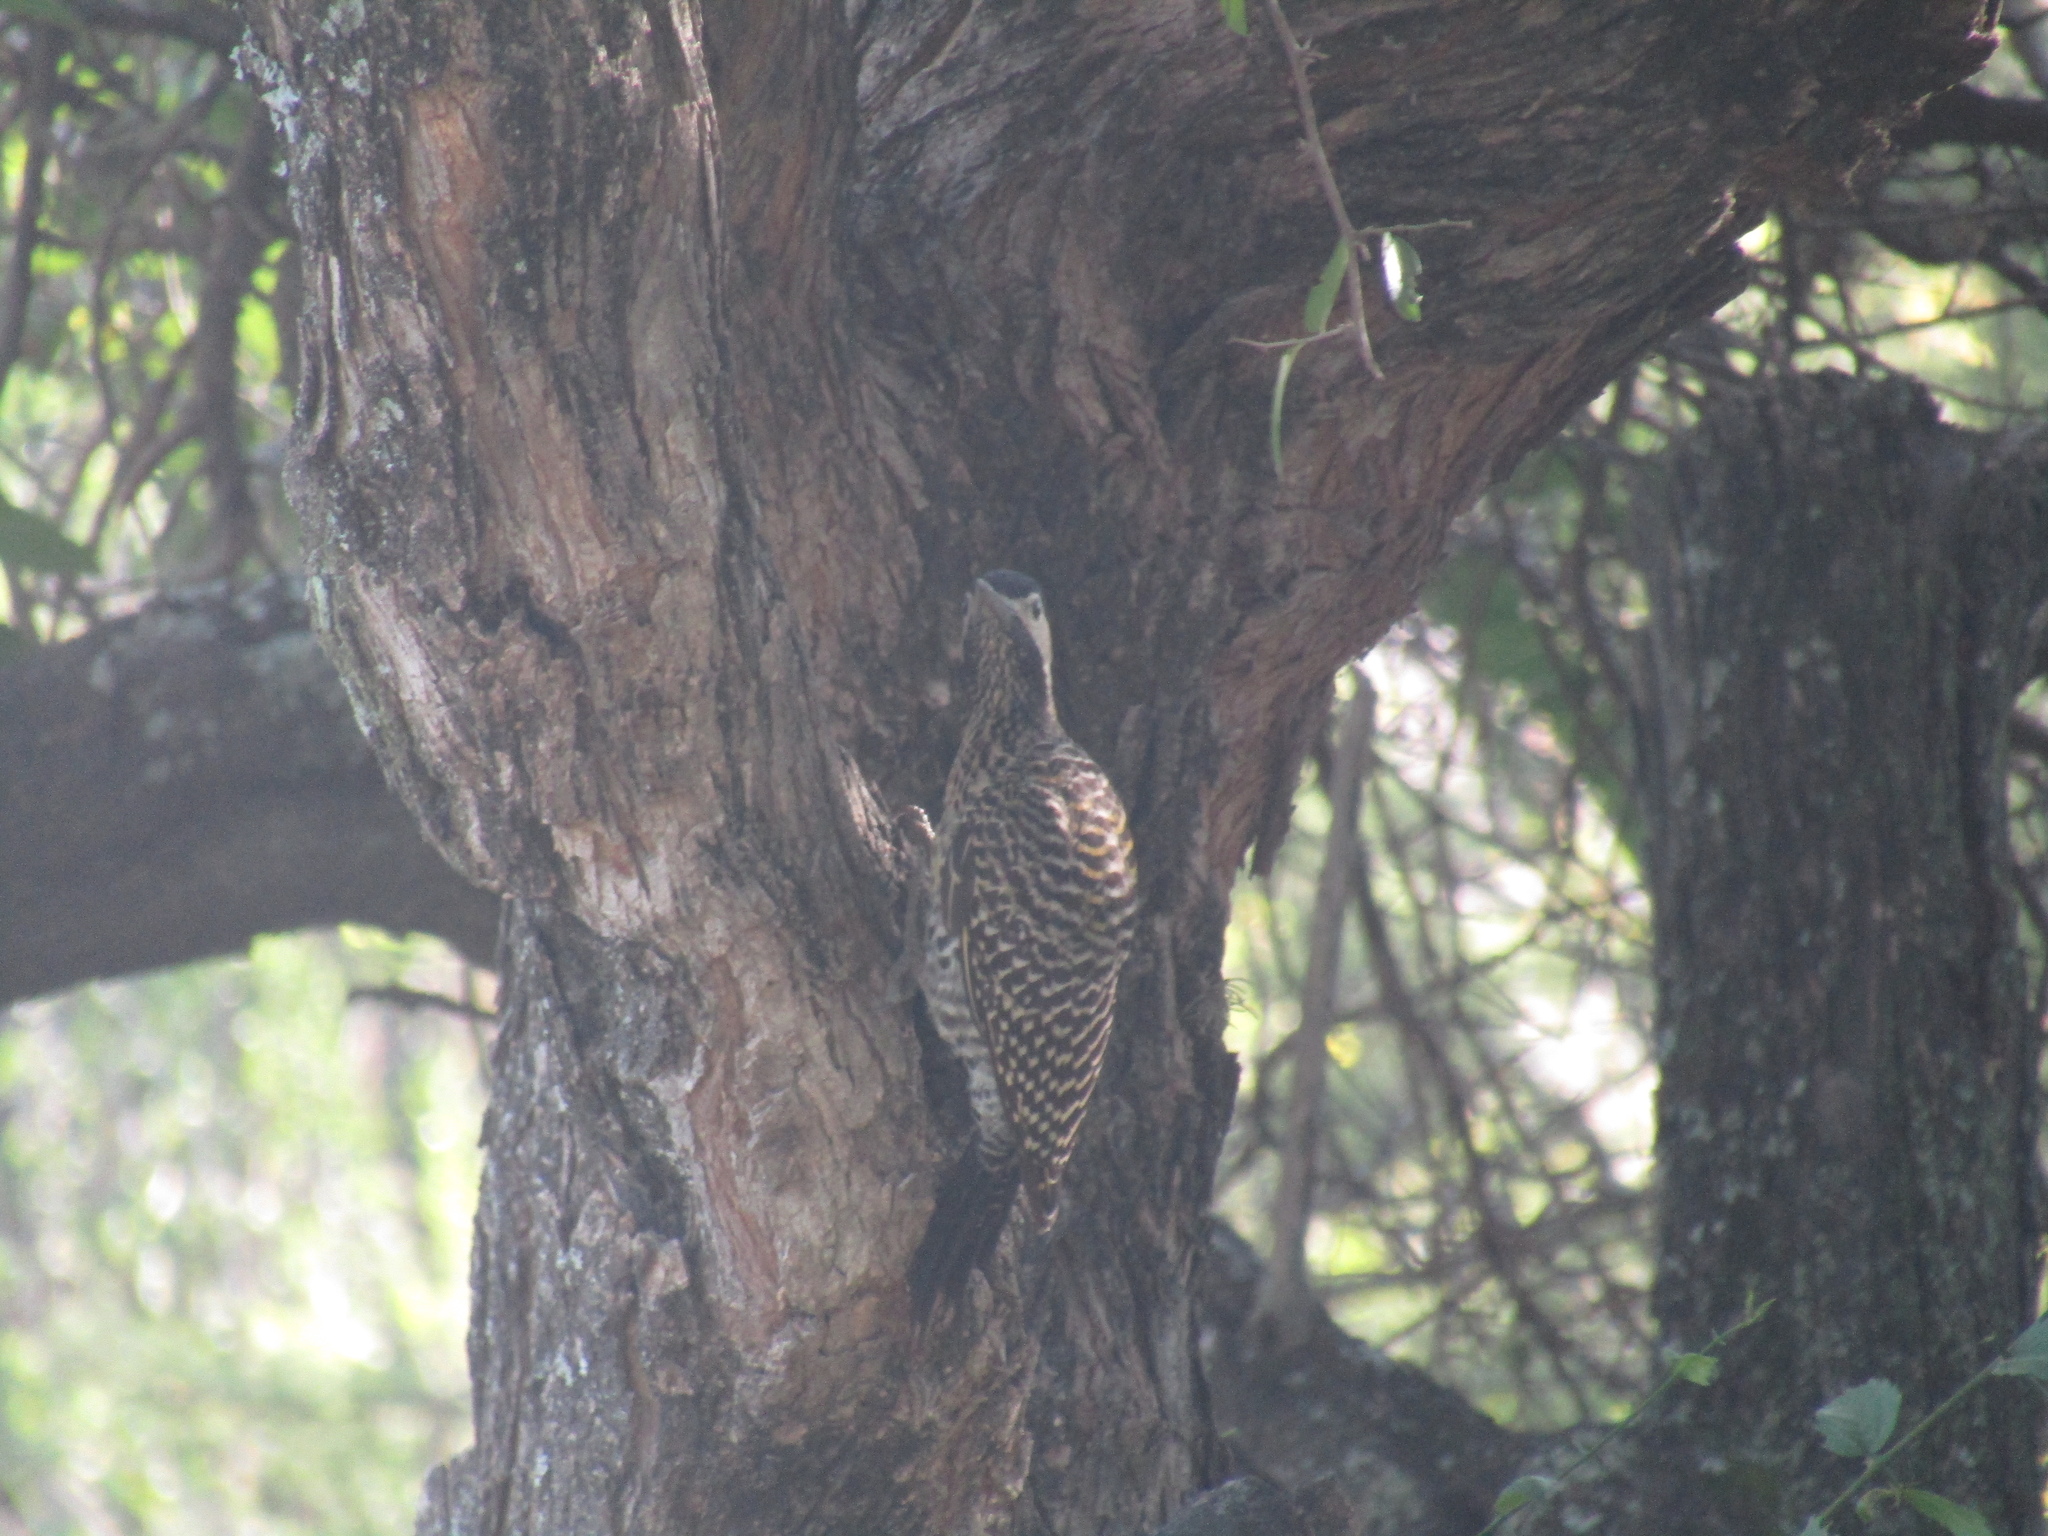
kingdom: Animalia
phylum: Chordata
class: Aves
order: Piciformes
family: Picidae
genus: Colaptes
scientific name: Colaptes melanochloros
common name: Green-barred woodpecker
